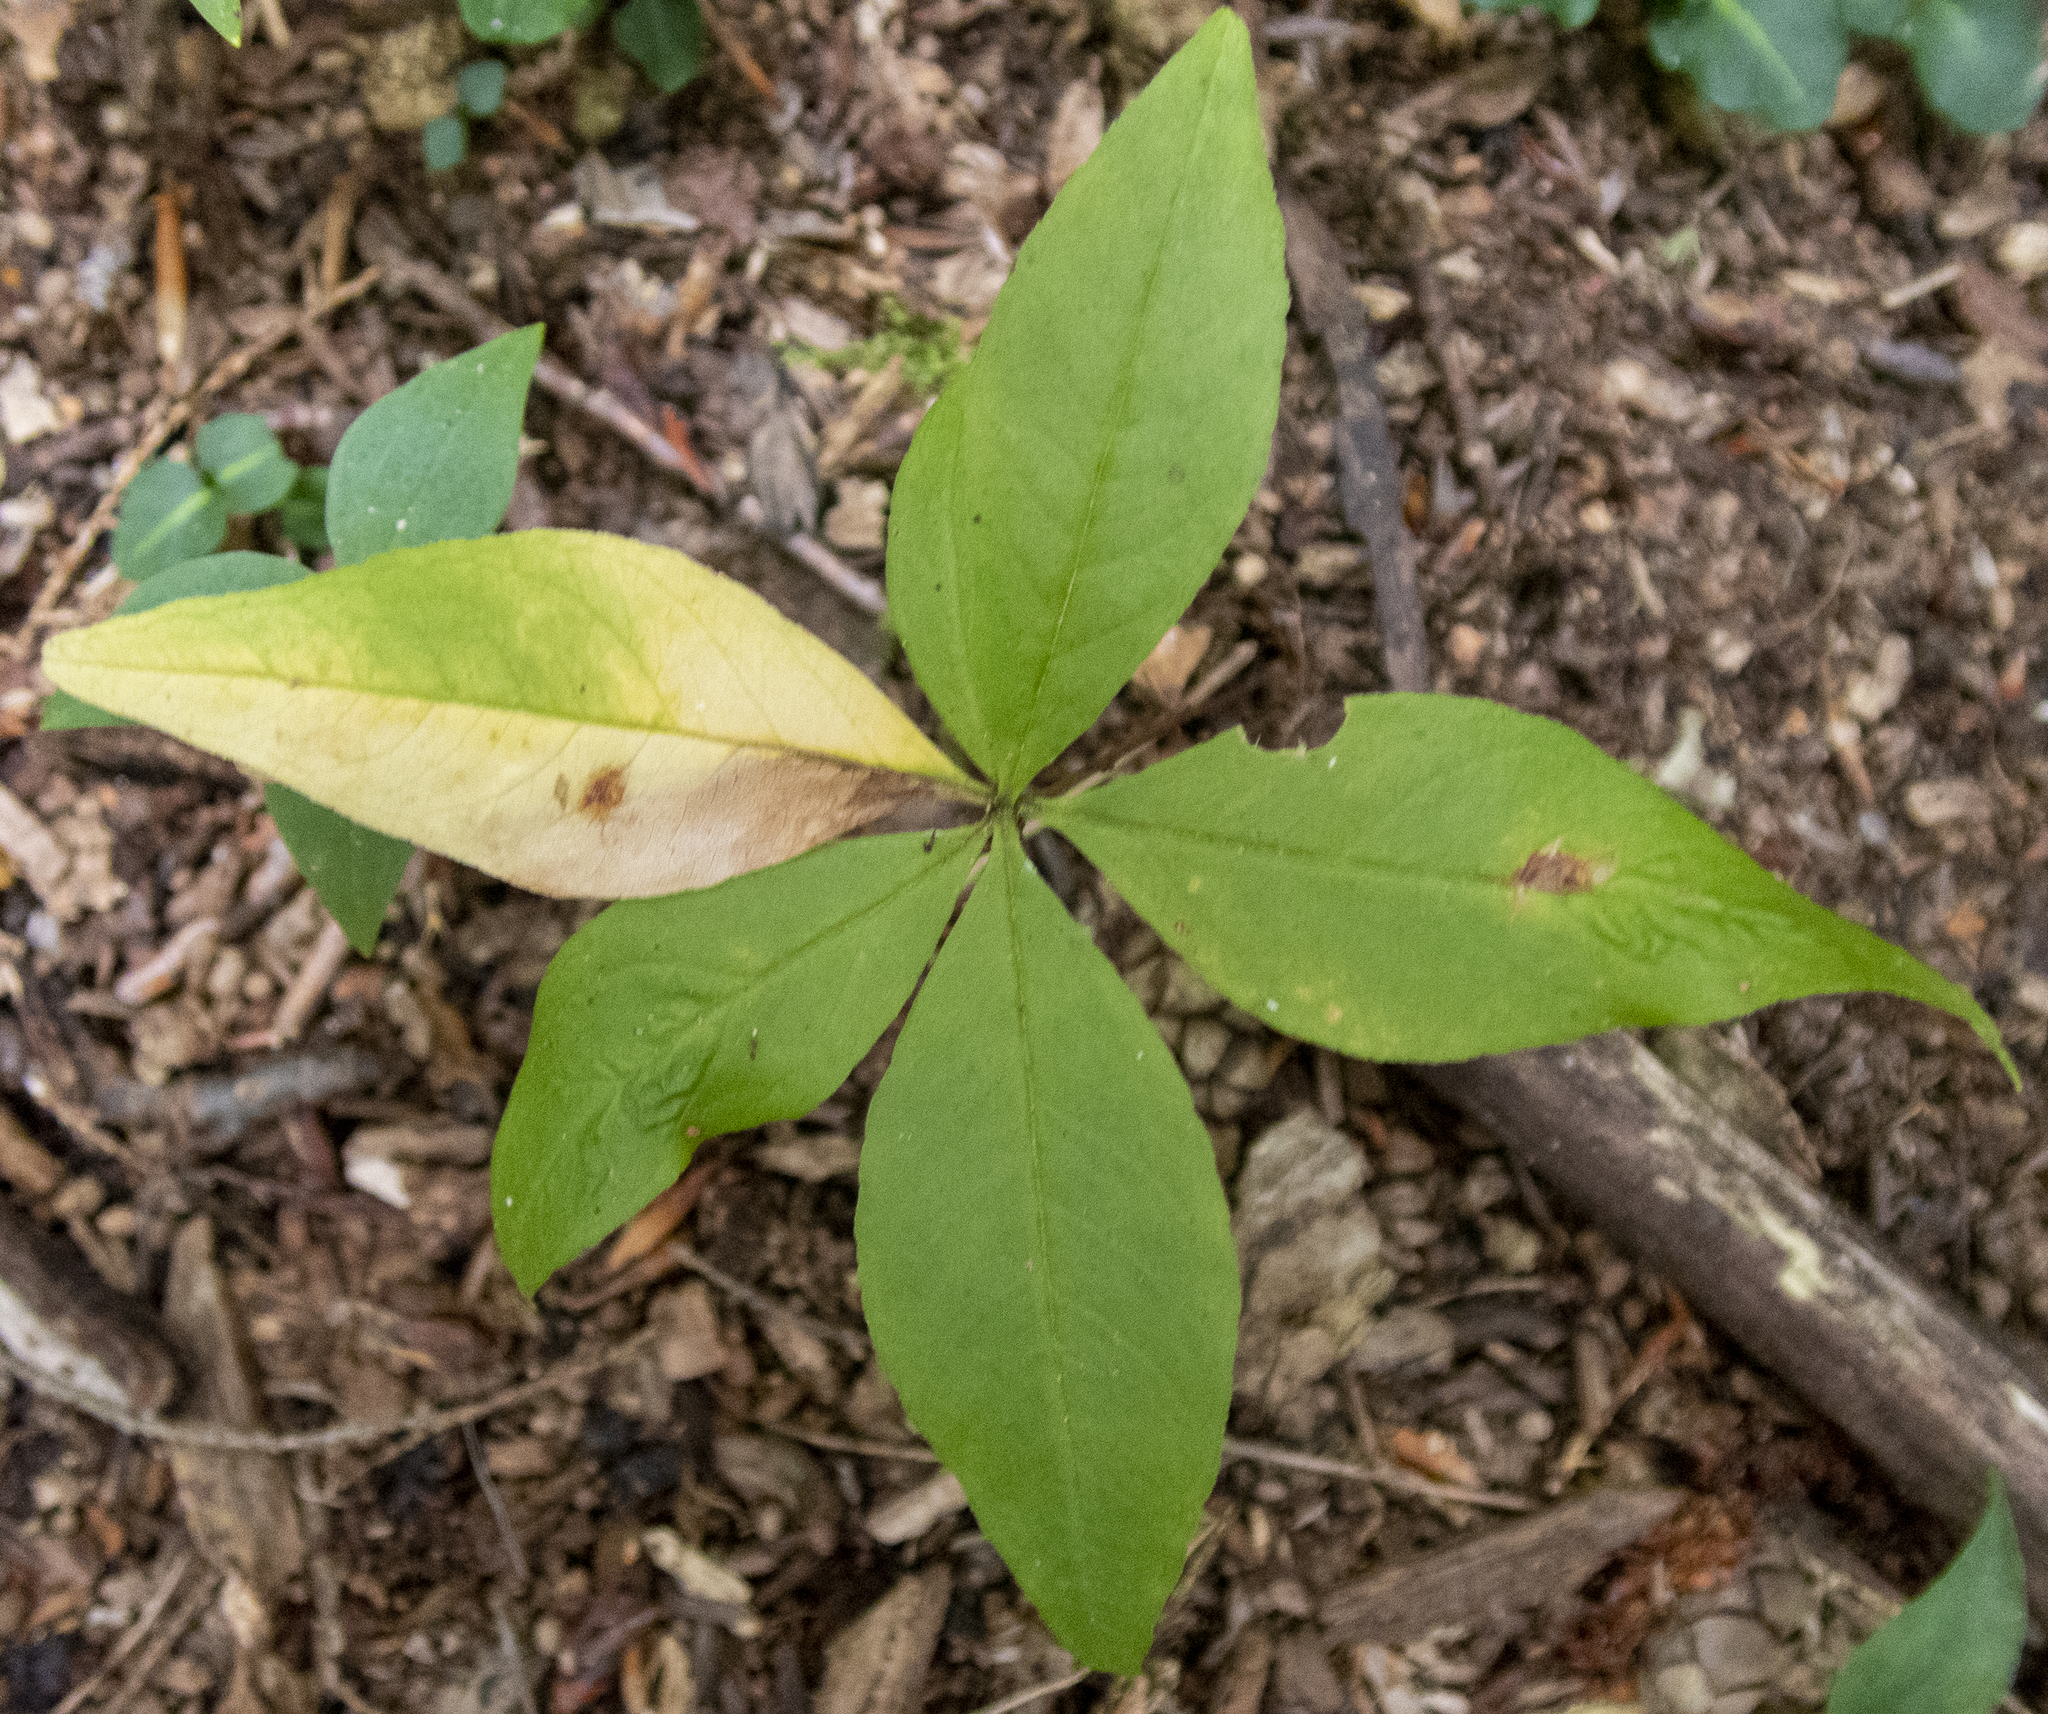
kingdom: Plantae
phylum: Tracheophyta
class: Magnoliopsida
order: Ericales
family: Primulaceae
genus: Lysimachia
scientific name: Lysimachia borealis
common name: American starflower
